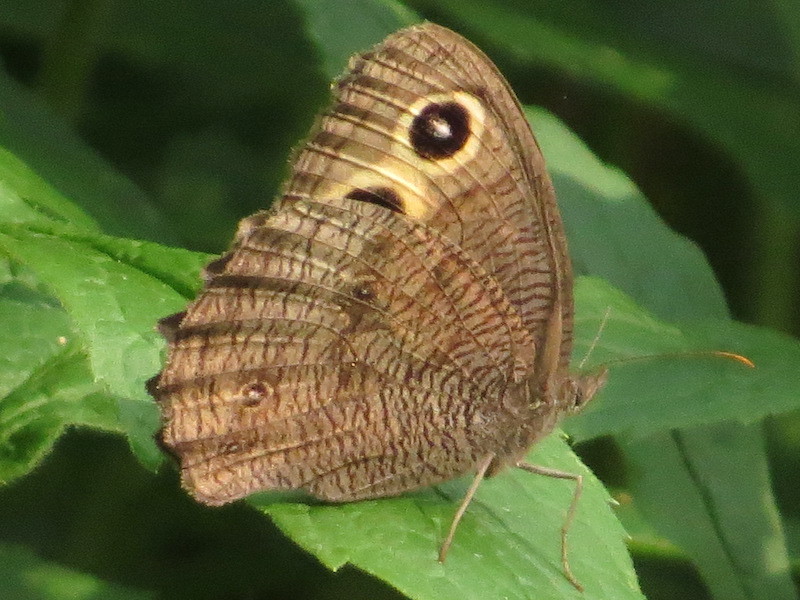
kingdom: Animalia
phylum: Arthropoda
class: Insecta
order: Lepidoptera
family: Nymphalidae
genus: Cercyonis
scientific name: Cercyonis pegala
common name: Common wood-nymph
